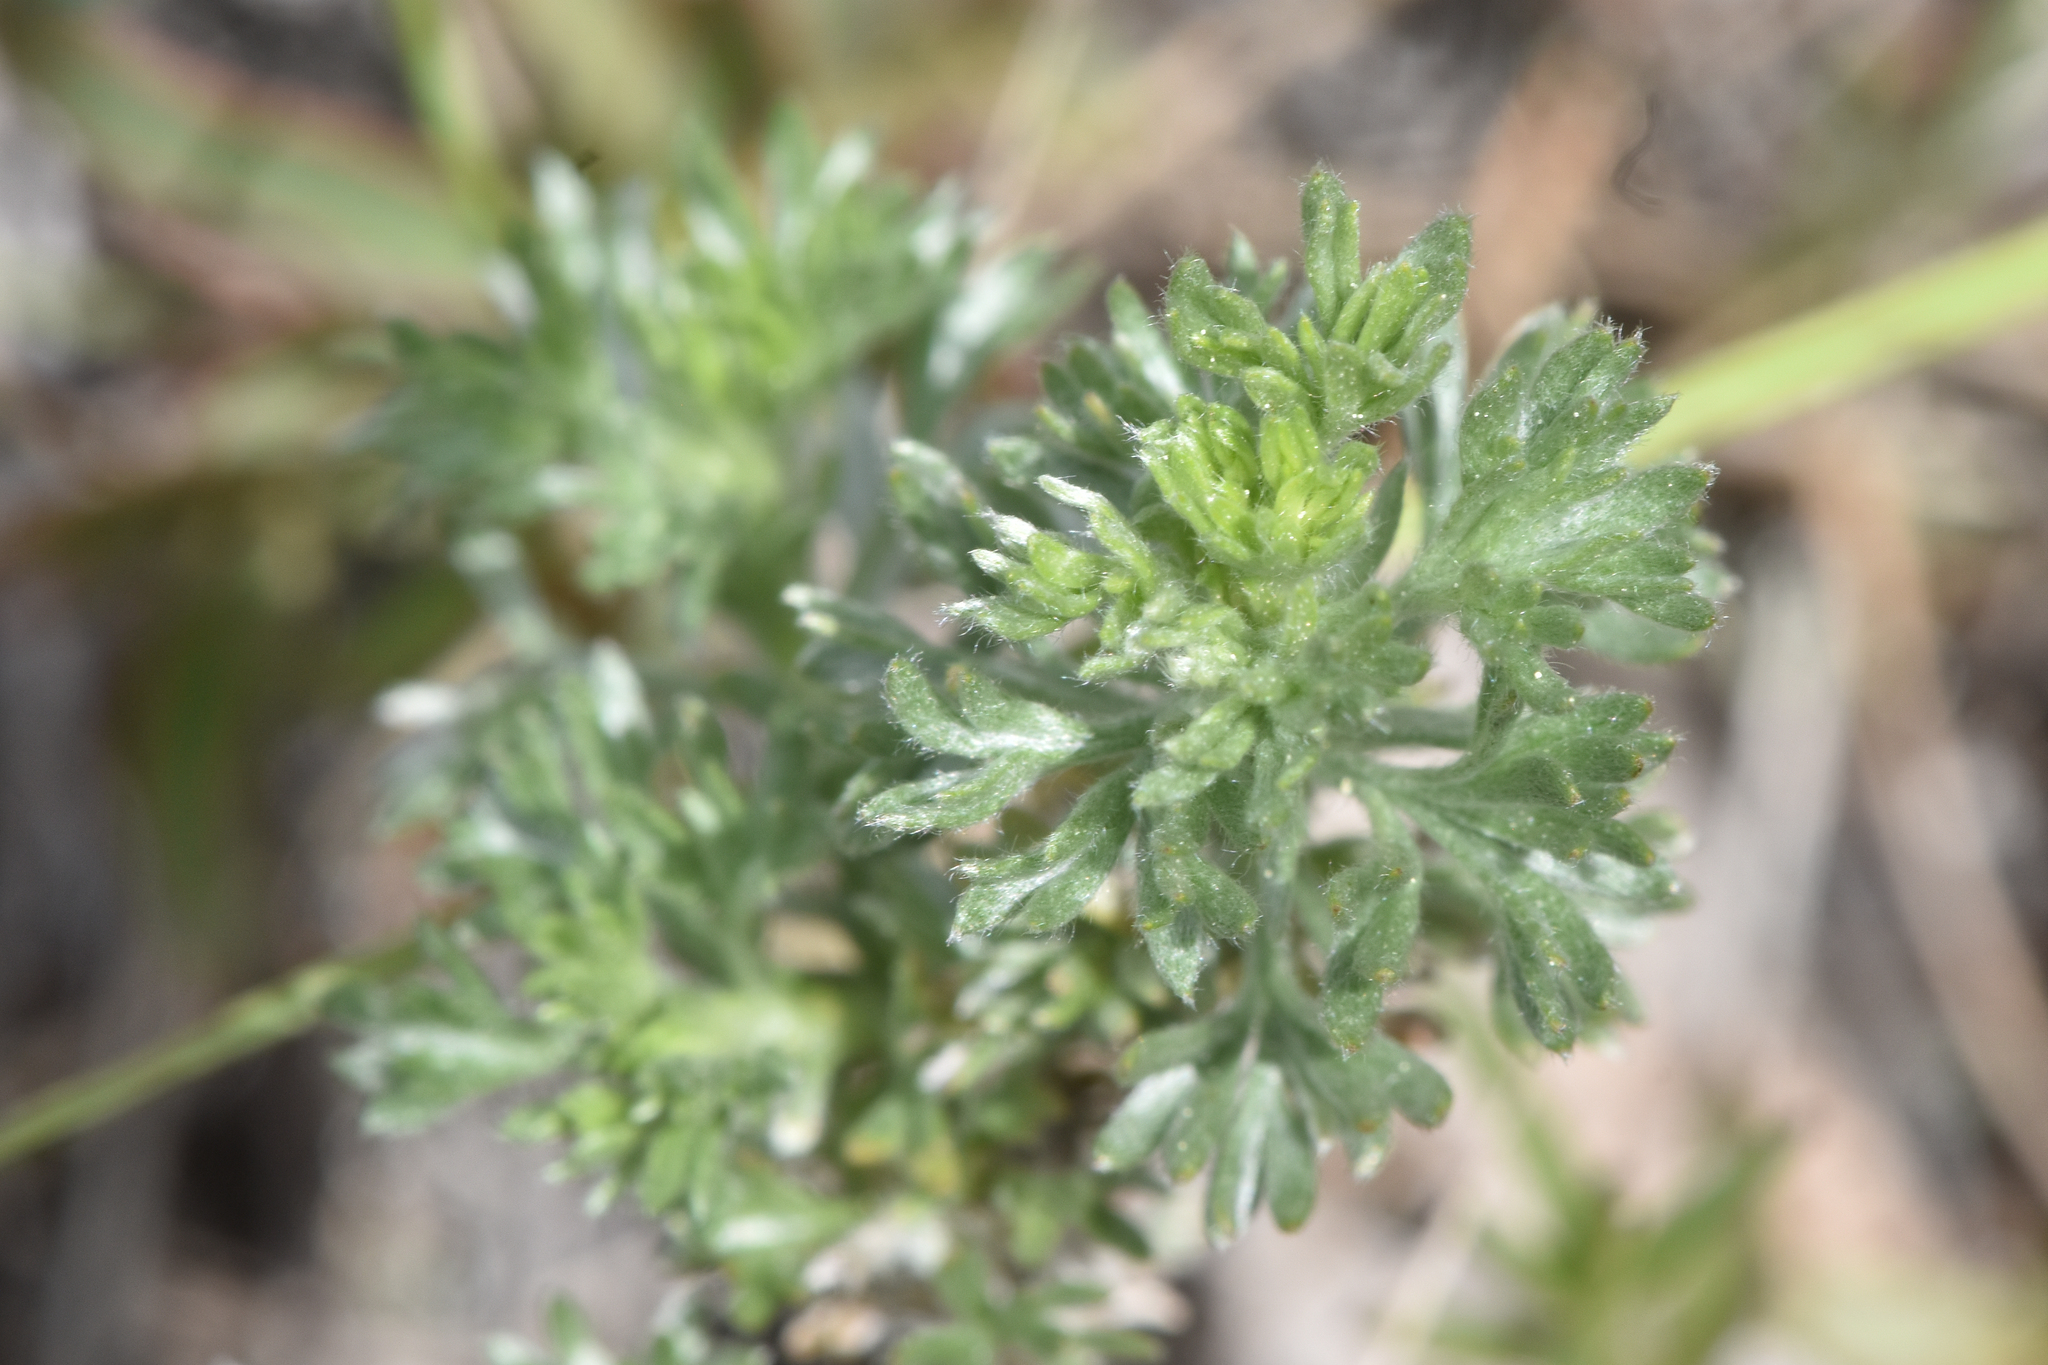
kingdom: Plantae
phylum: Tracheophyta
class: Magnoliopsida
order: Asterales
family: Asteraceae
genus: Artemisia
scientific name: Artemisia frigida
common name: Prairie sagewort
